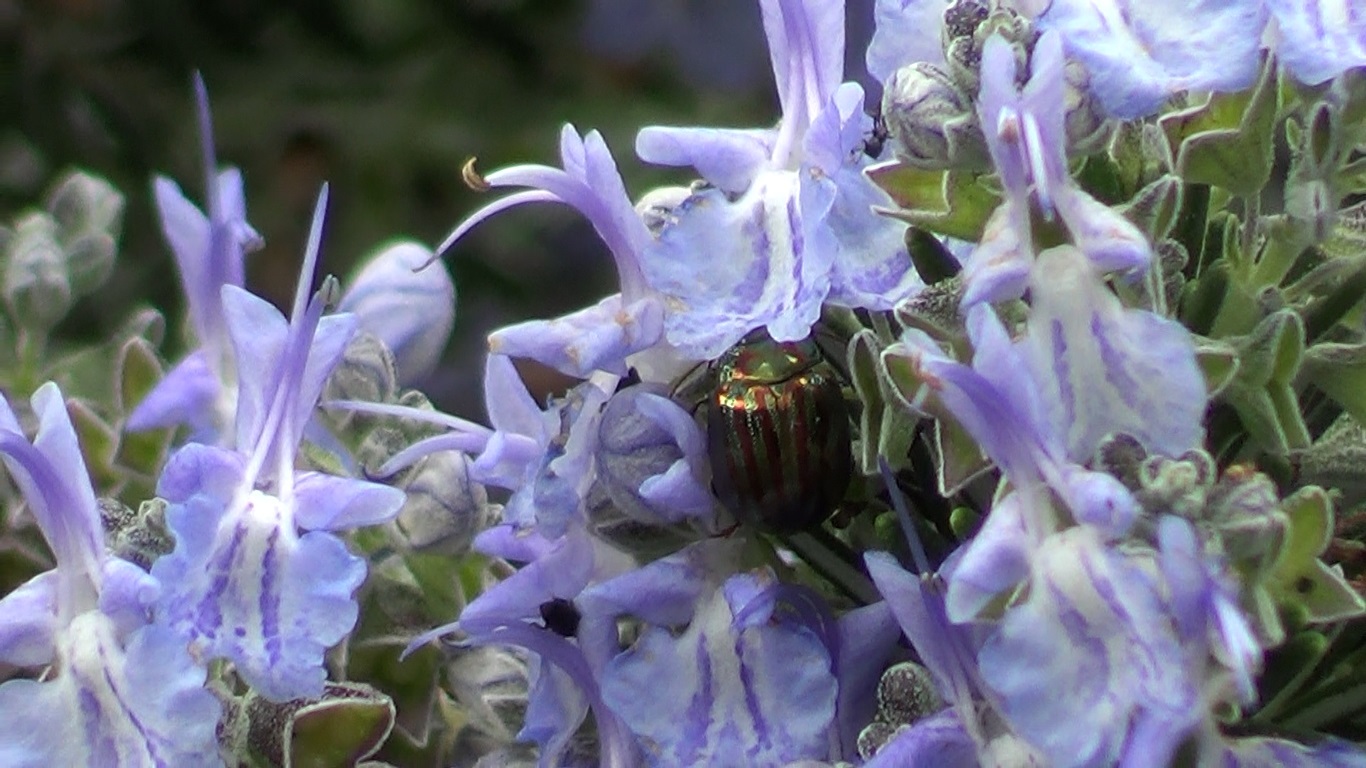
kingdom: Animalia
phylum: Arthropoda
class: Insecta
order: Coleoptera
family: Chrysomelidae
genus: Chrysolina
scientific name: Chrysolina americana
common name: Rosemary beetle
